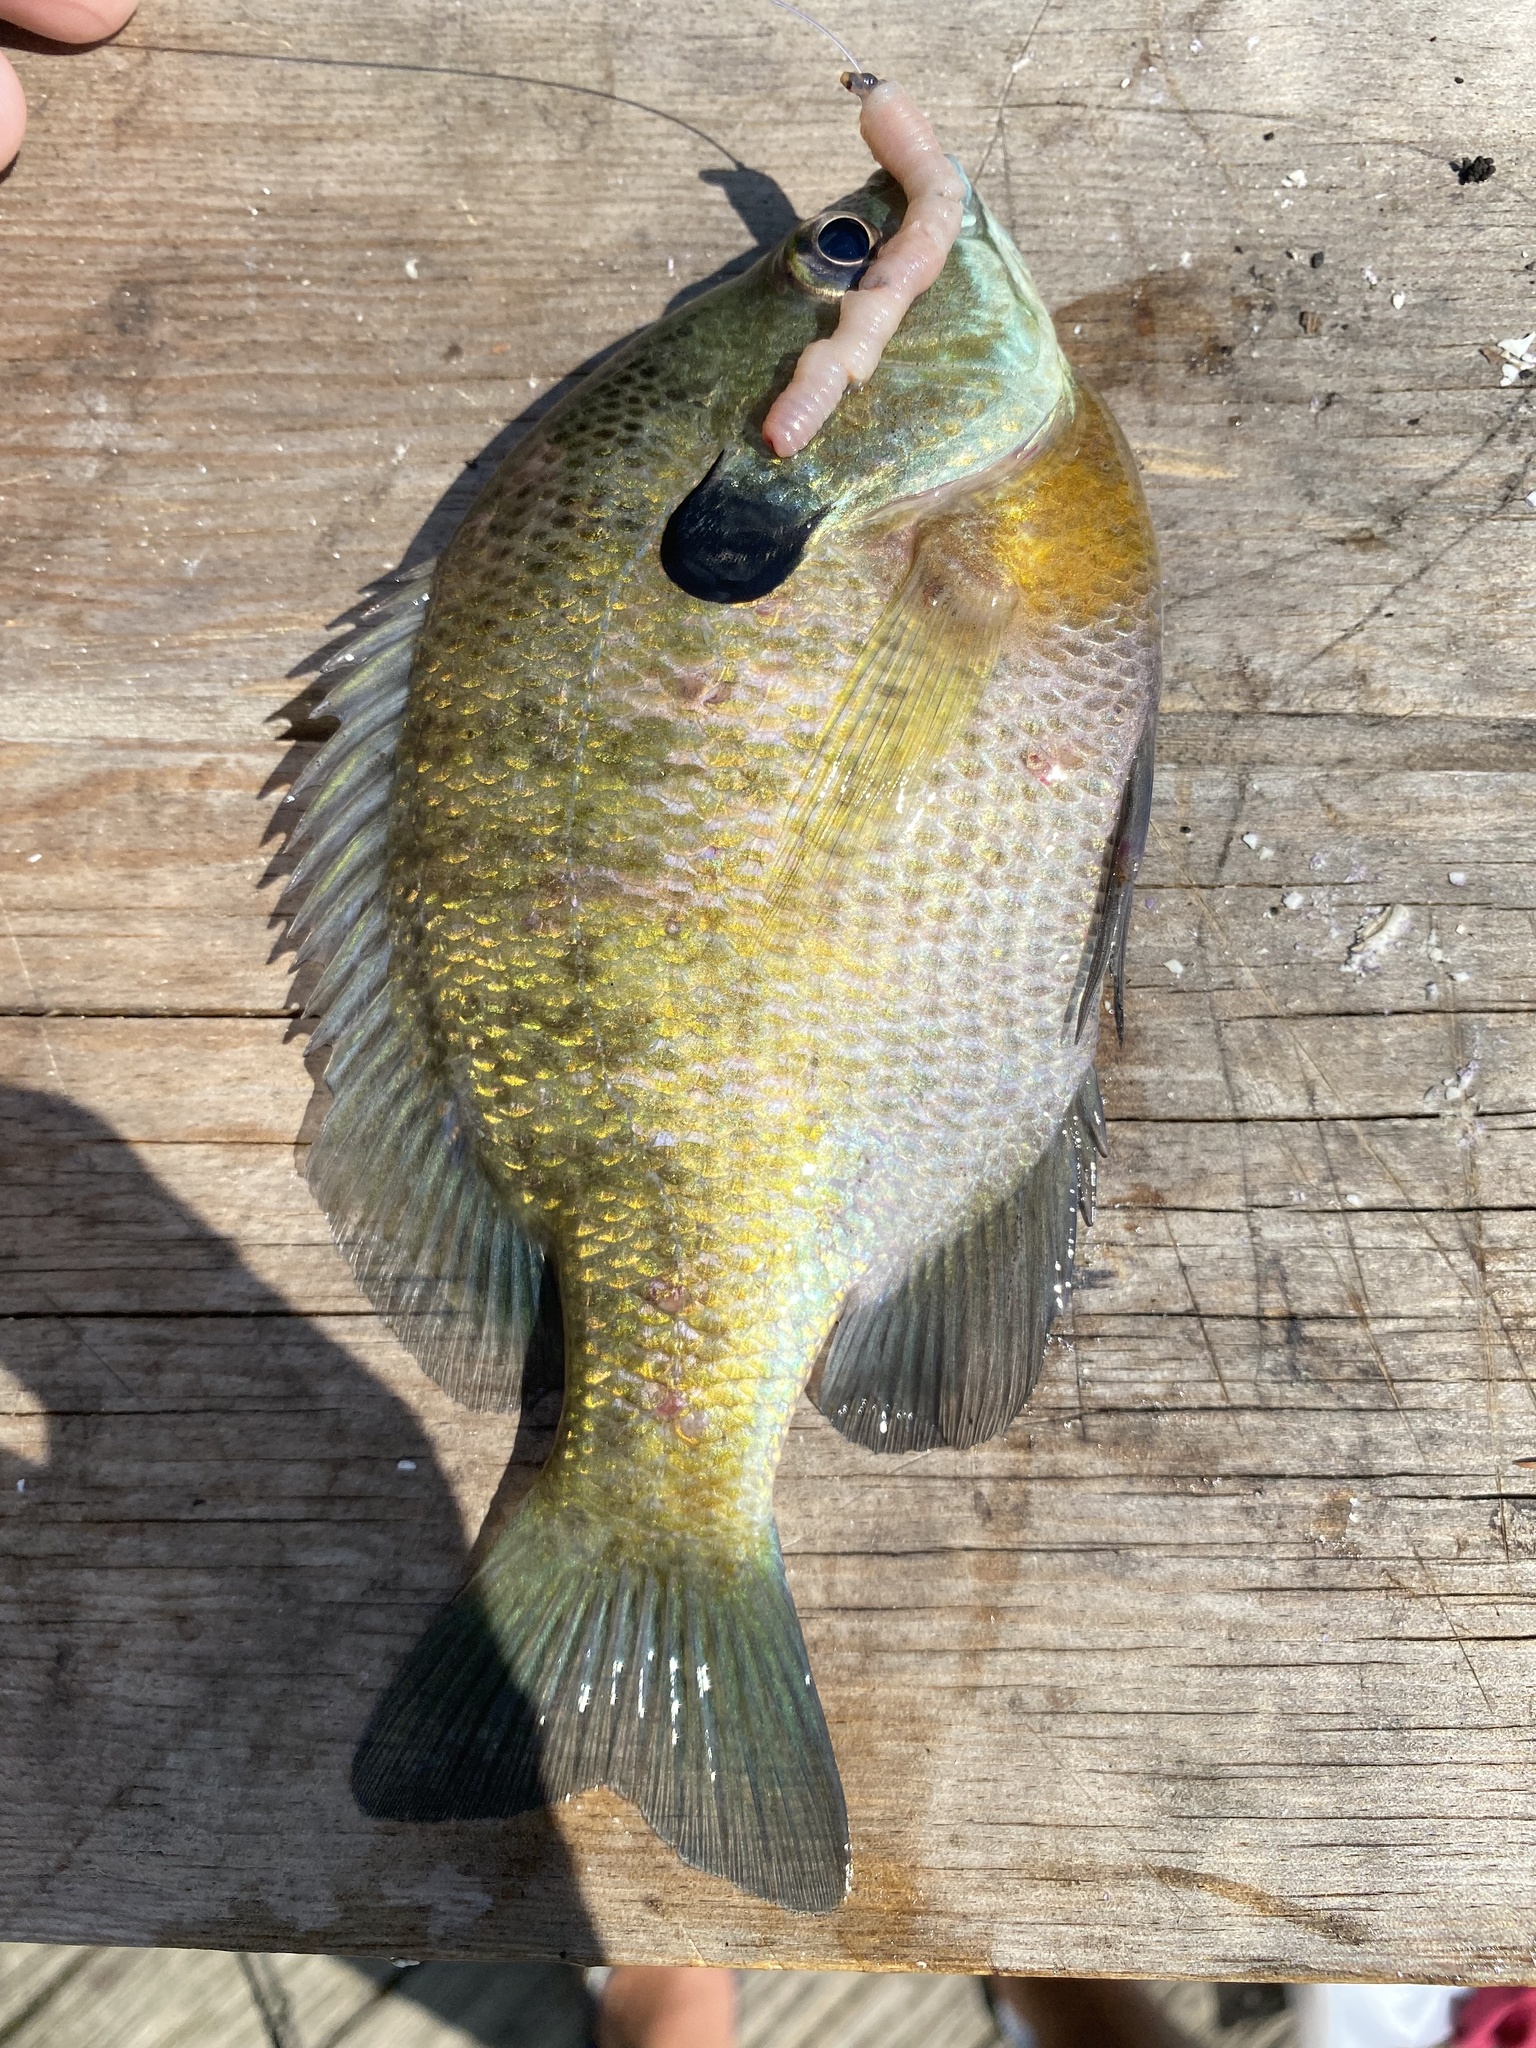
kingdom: Animalia
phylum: Chordata
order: Perciformes
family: Centrarchidae
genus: Lepomis
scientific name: Lepomis macrochirus
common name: Bluegill
